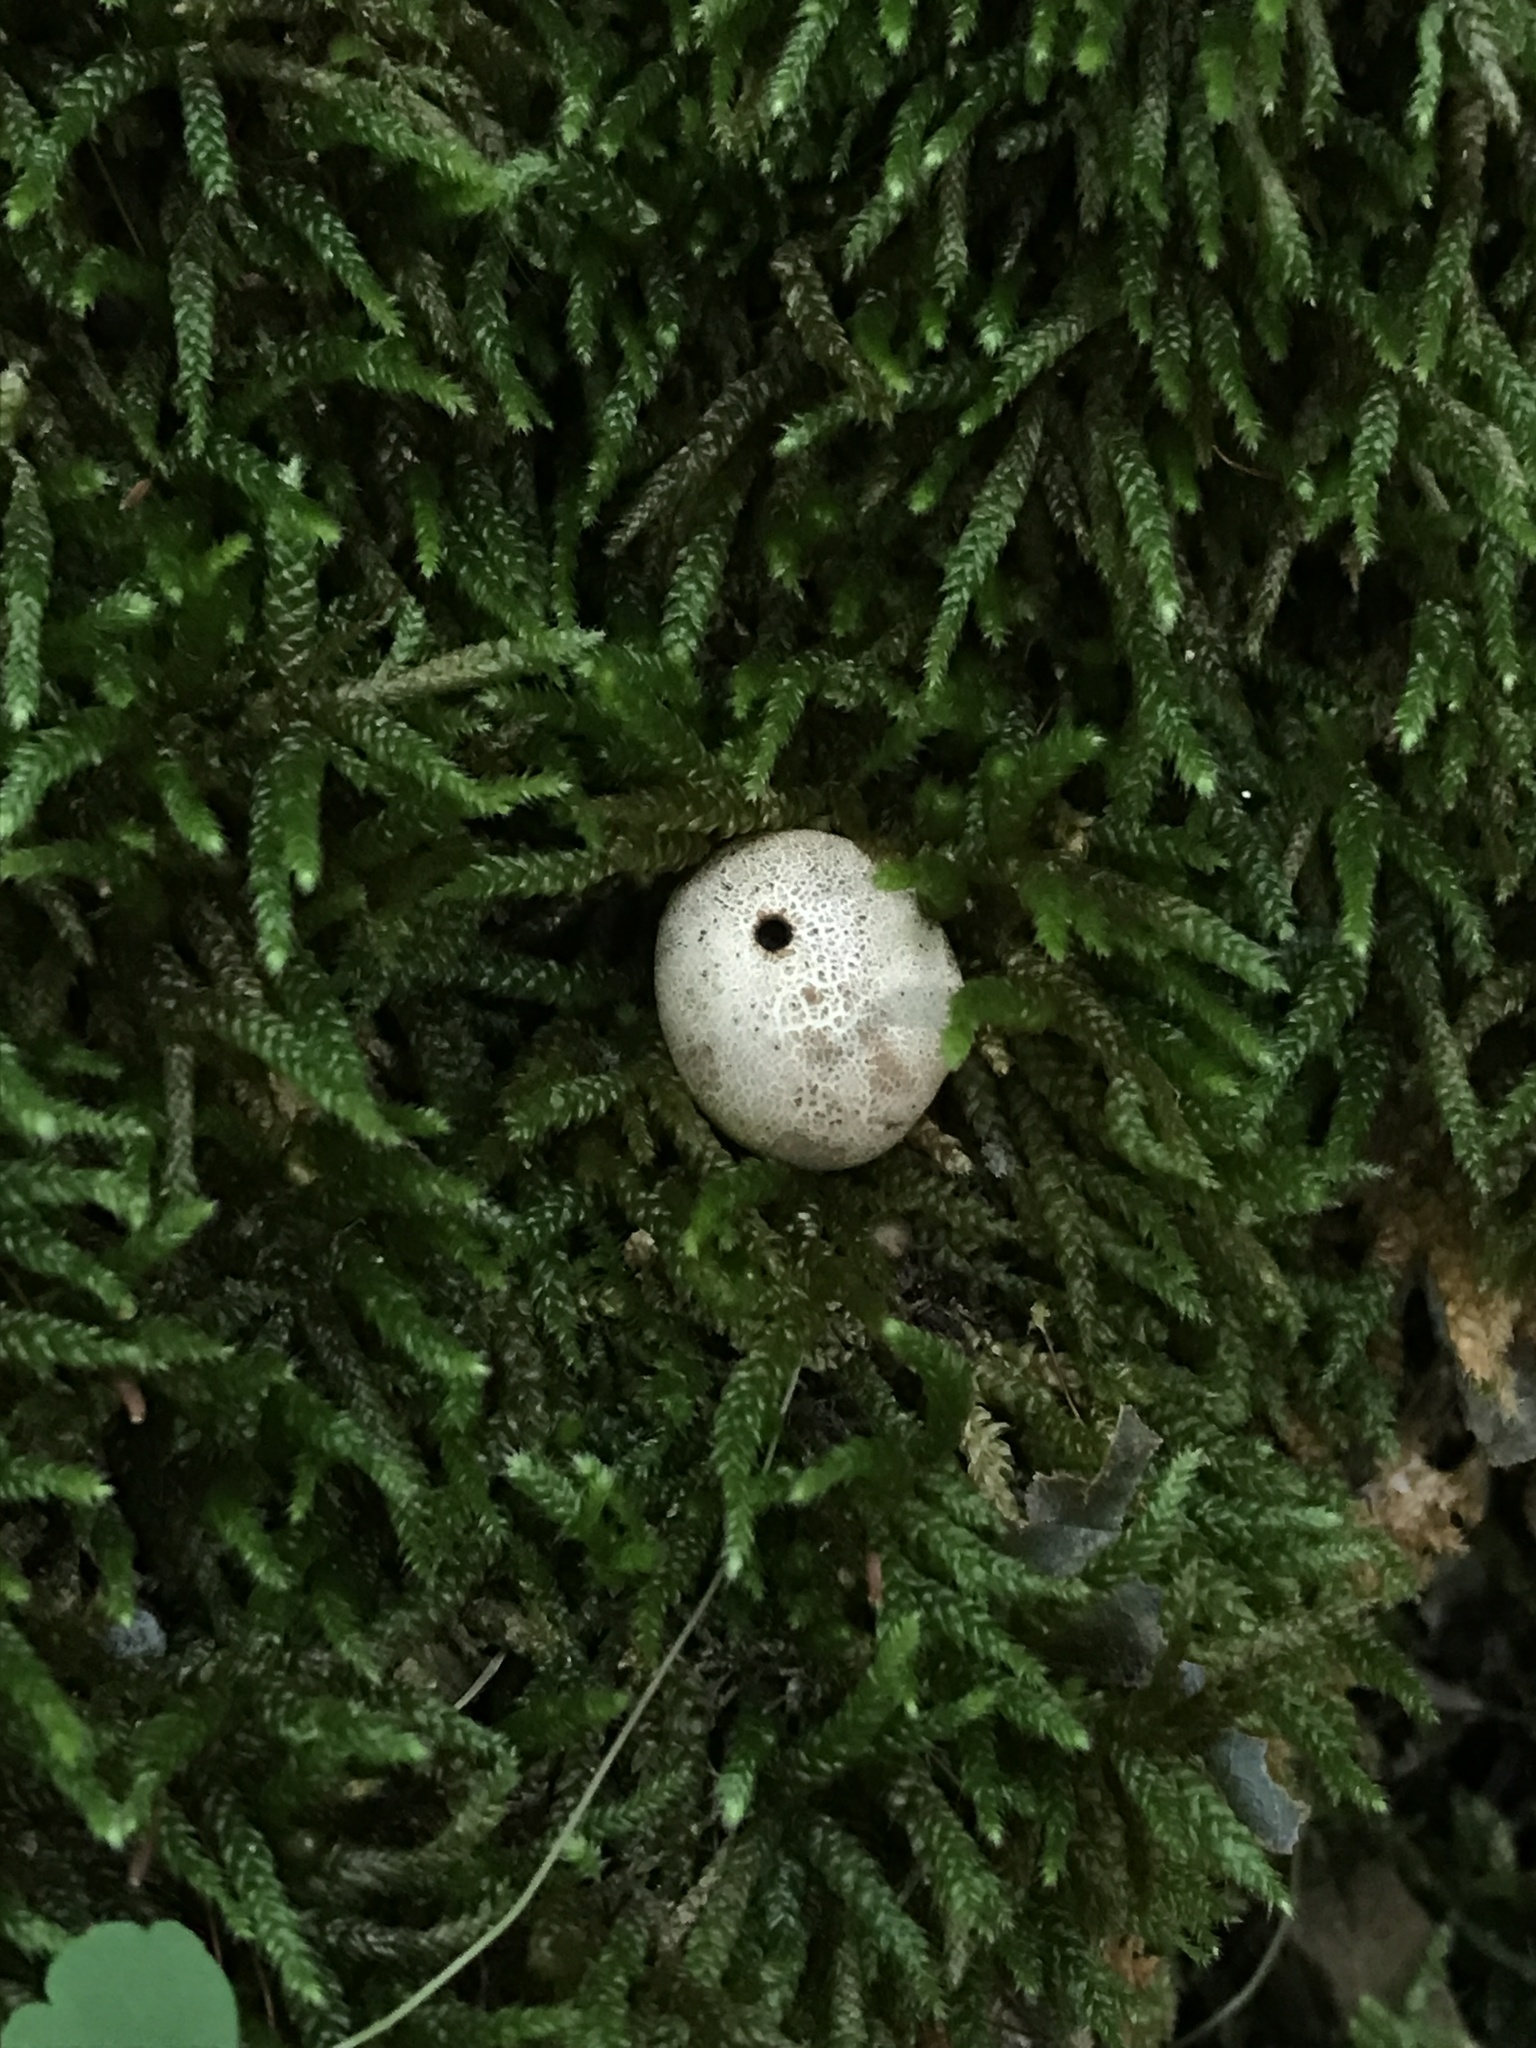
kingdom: Fungi
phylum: Basidiomycota
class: Agaricomycetes
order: Boletales
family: Sclerodermataceae
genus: Scleroderma
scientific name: Scleroderma areolatum
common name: Leopard earthball
